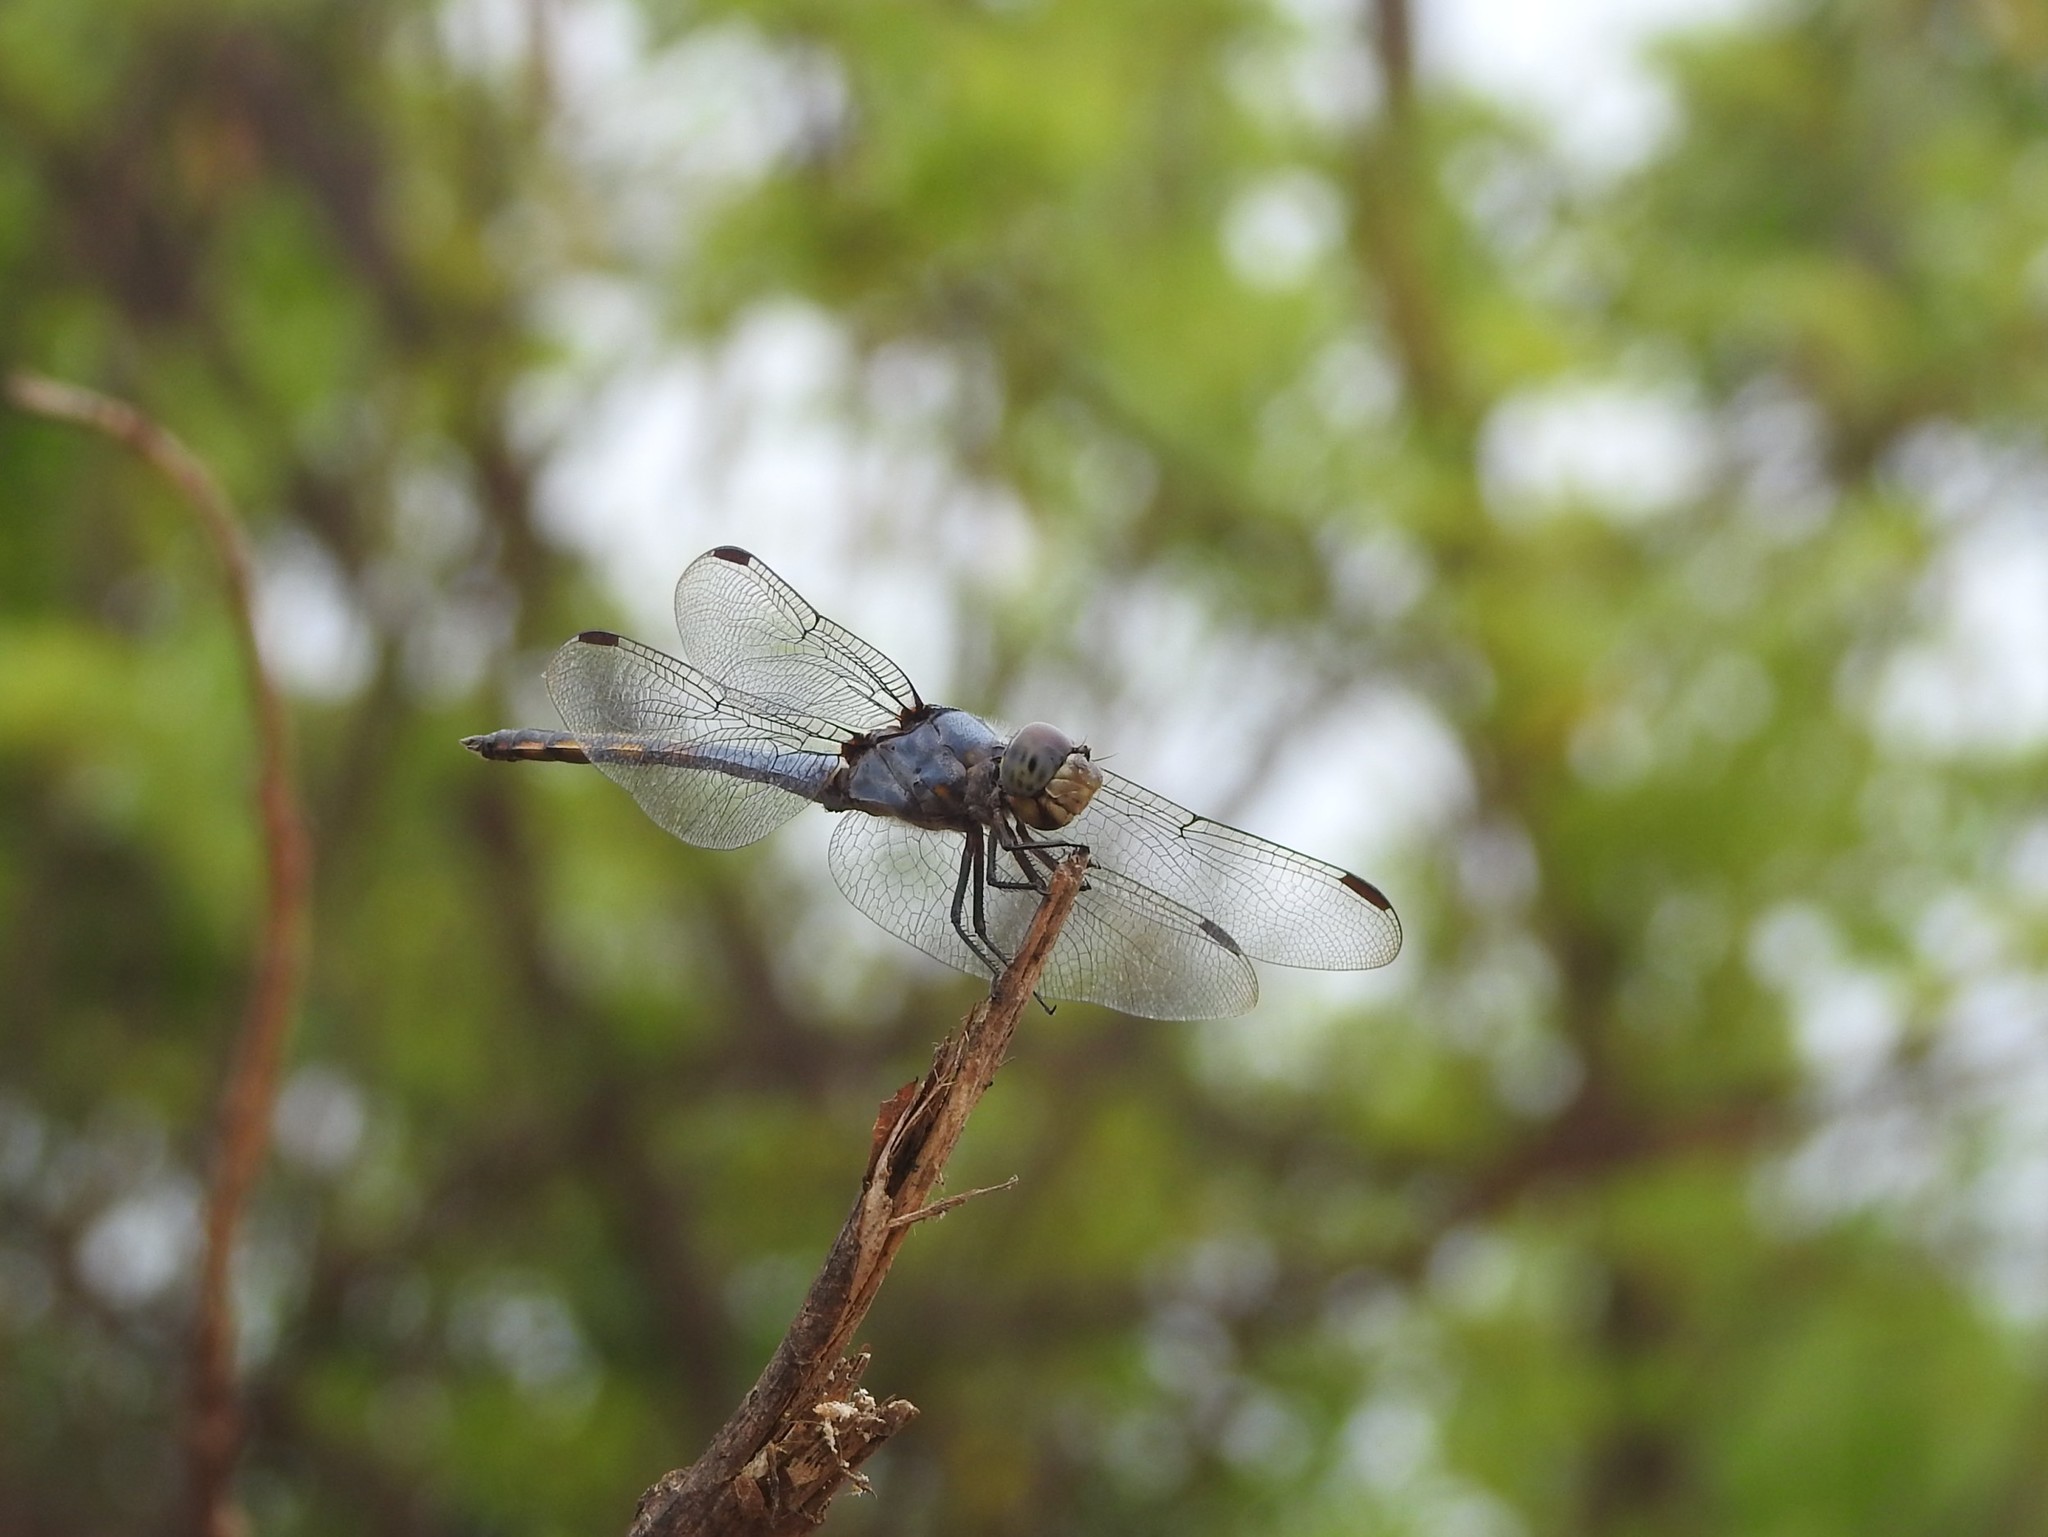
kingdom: Animalia
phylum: Arthropoda
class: Insecta
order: Odonata
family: Libellulidae
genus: Potamarcha
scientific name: Potamarcha congener
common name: Blue chaser
